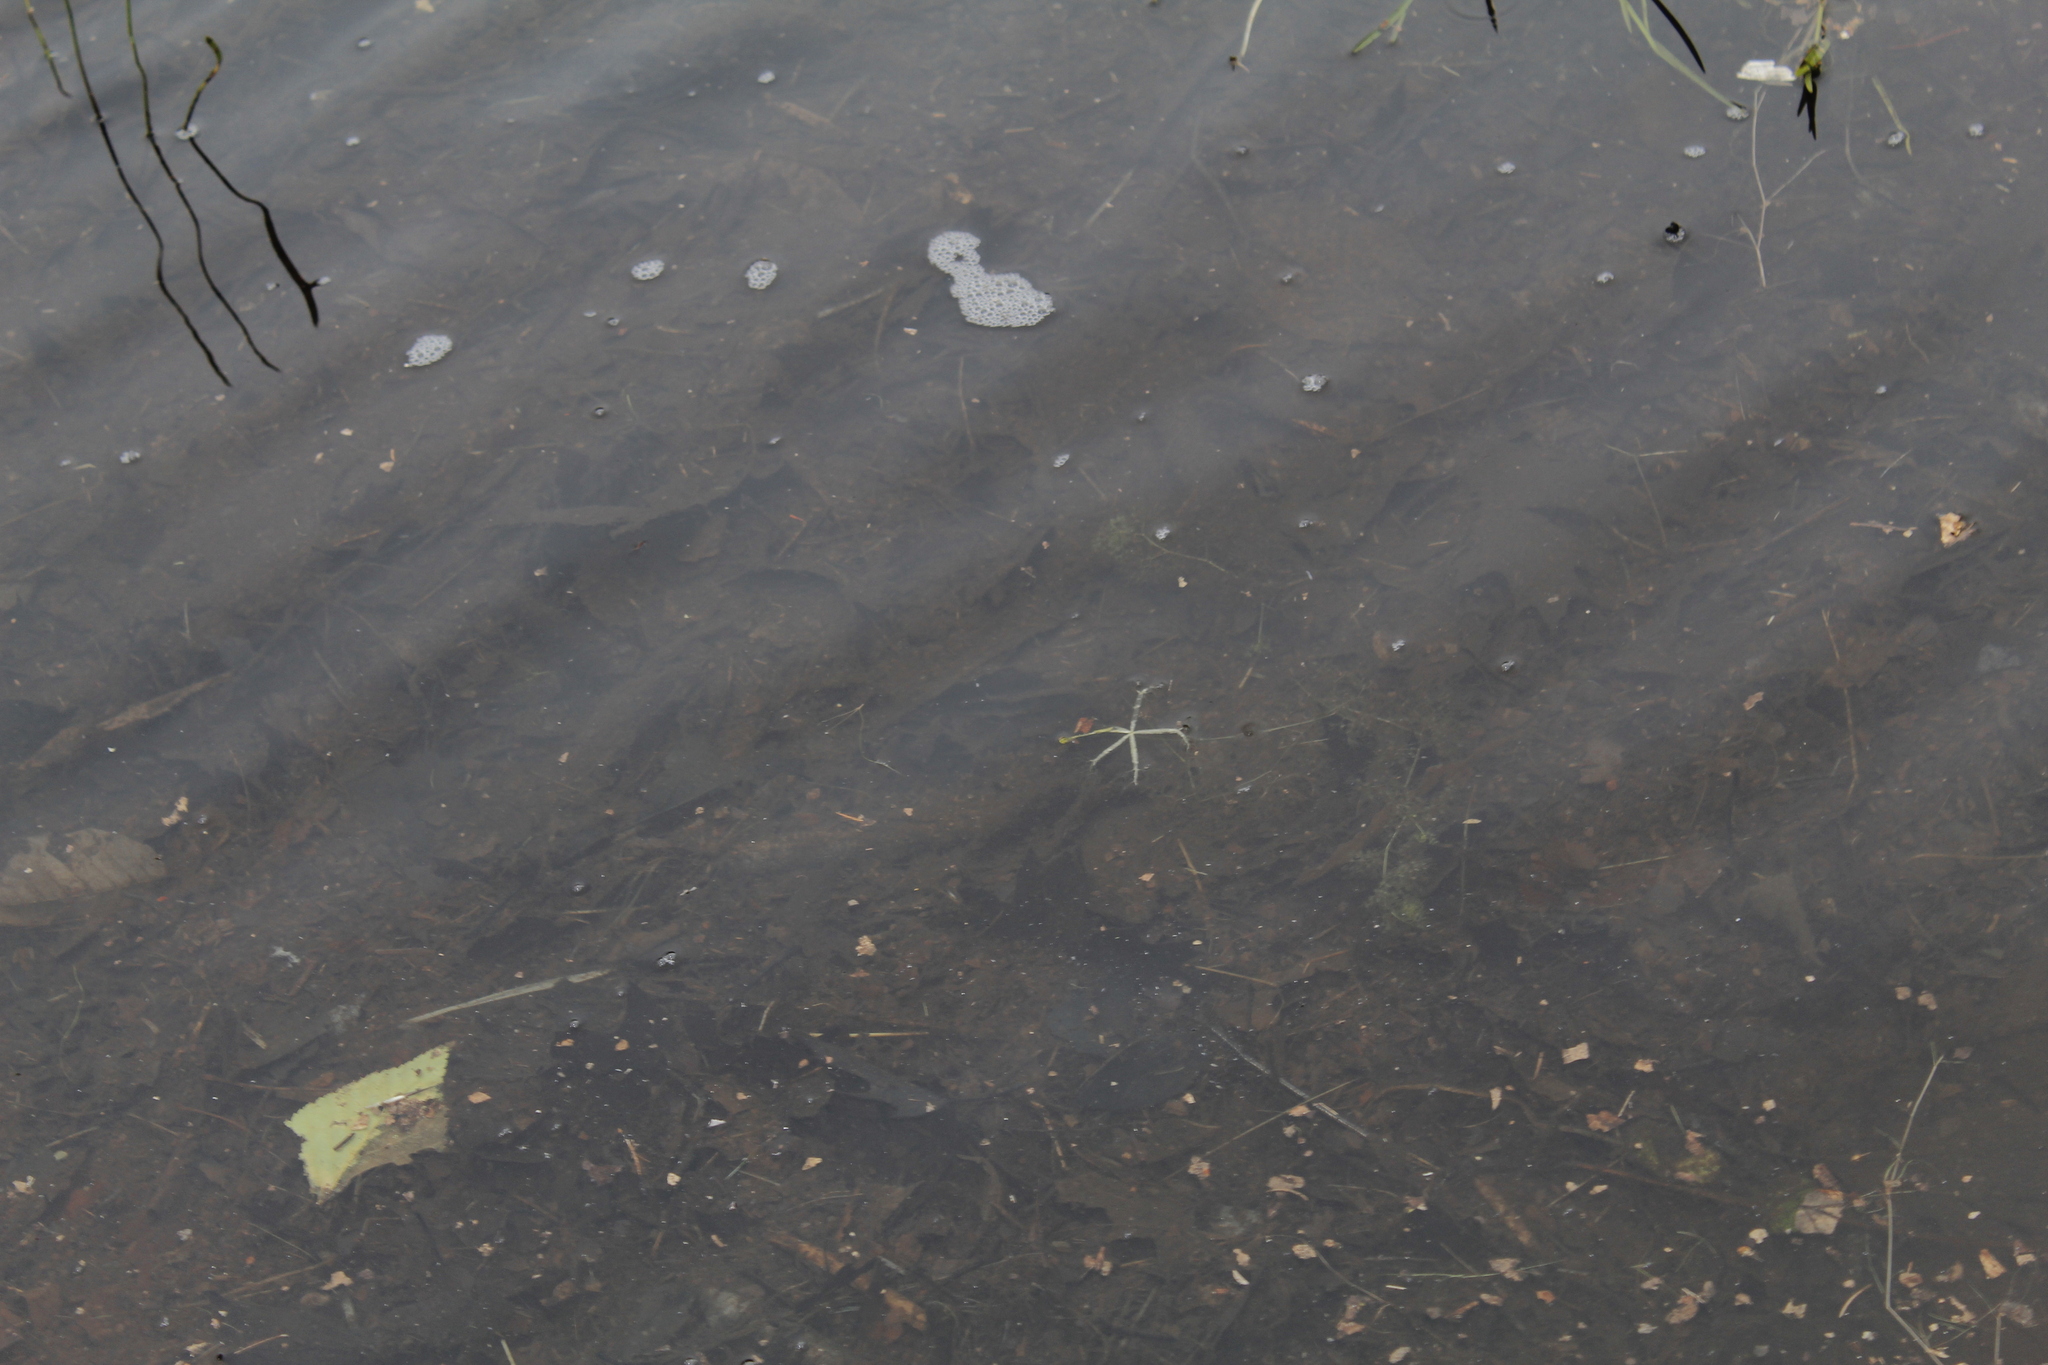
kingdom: Plantae
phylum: Tracheophyta
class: Magnoliopsida
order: Lamiales
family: Lentibulariaceae
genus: Utricularia
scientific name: Utricularia radiata
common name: Floating bladderwort
